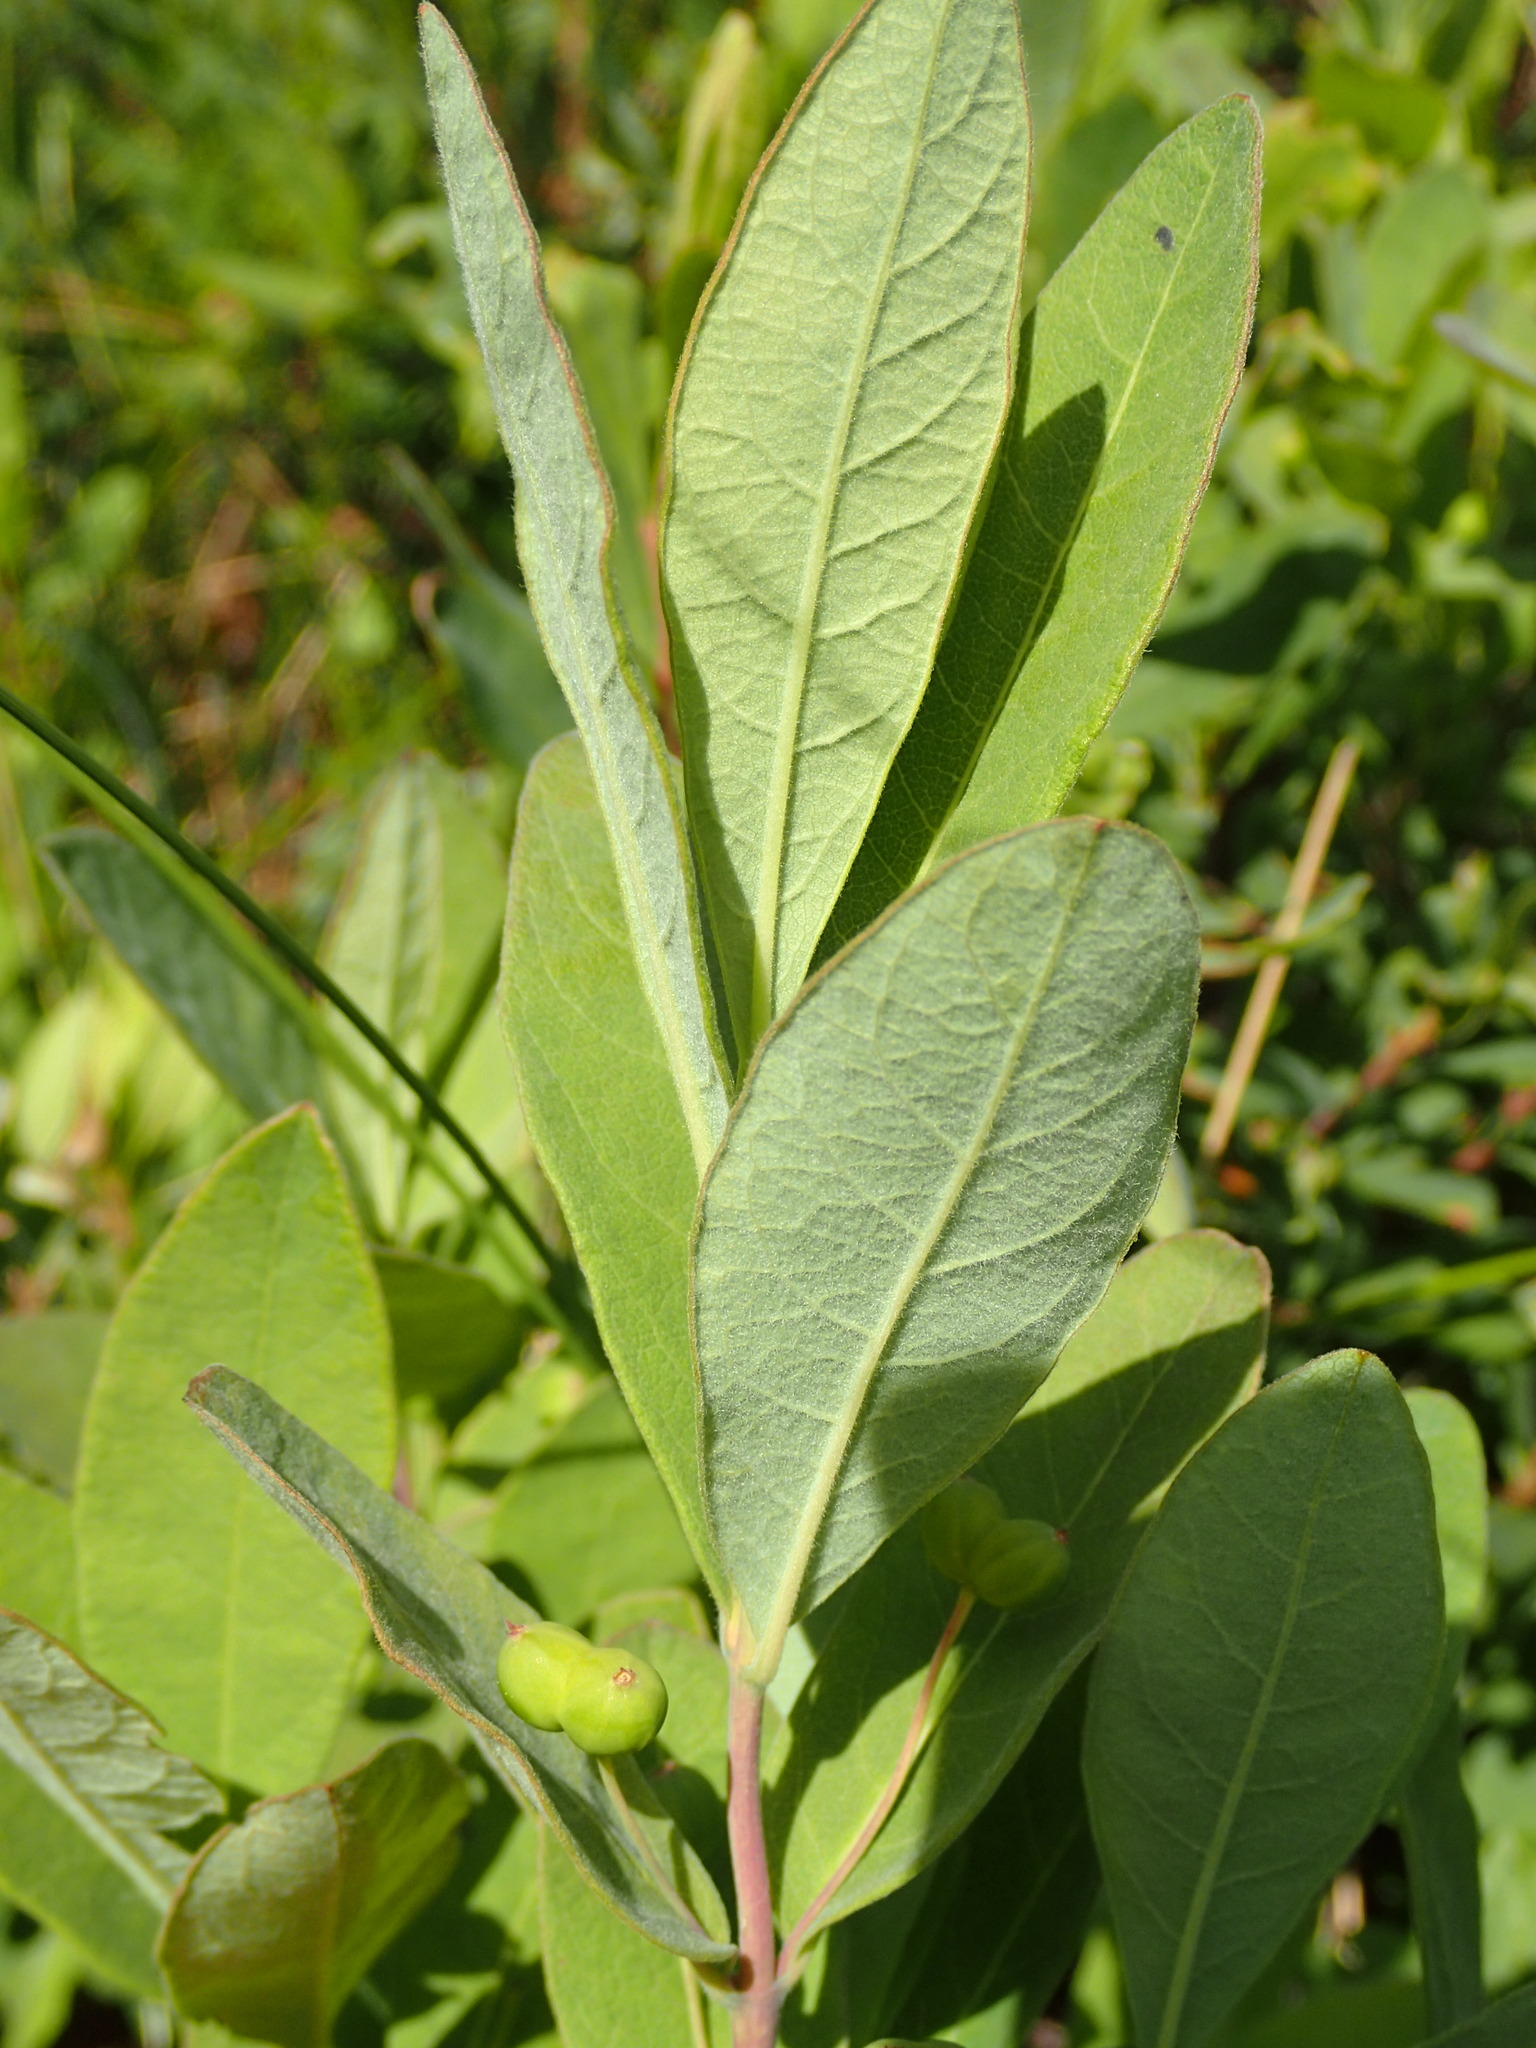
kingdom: Plantae
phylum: Tracheophyta
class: Magnoliopsida
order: Dipsacales
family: Caprifoliaceae
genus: Lonicera
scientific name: Lonicera oblongifolia
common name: Swamp fly honeysuckle
